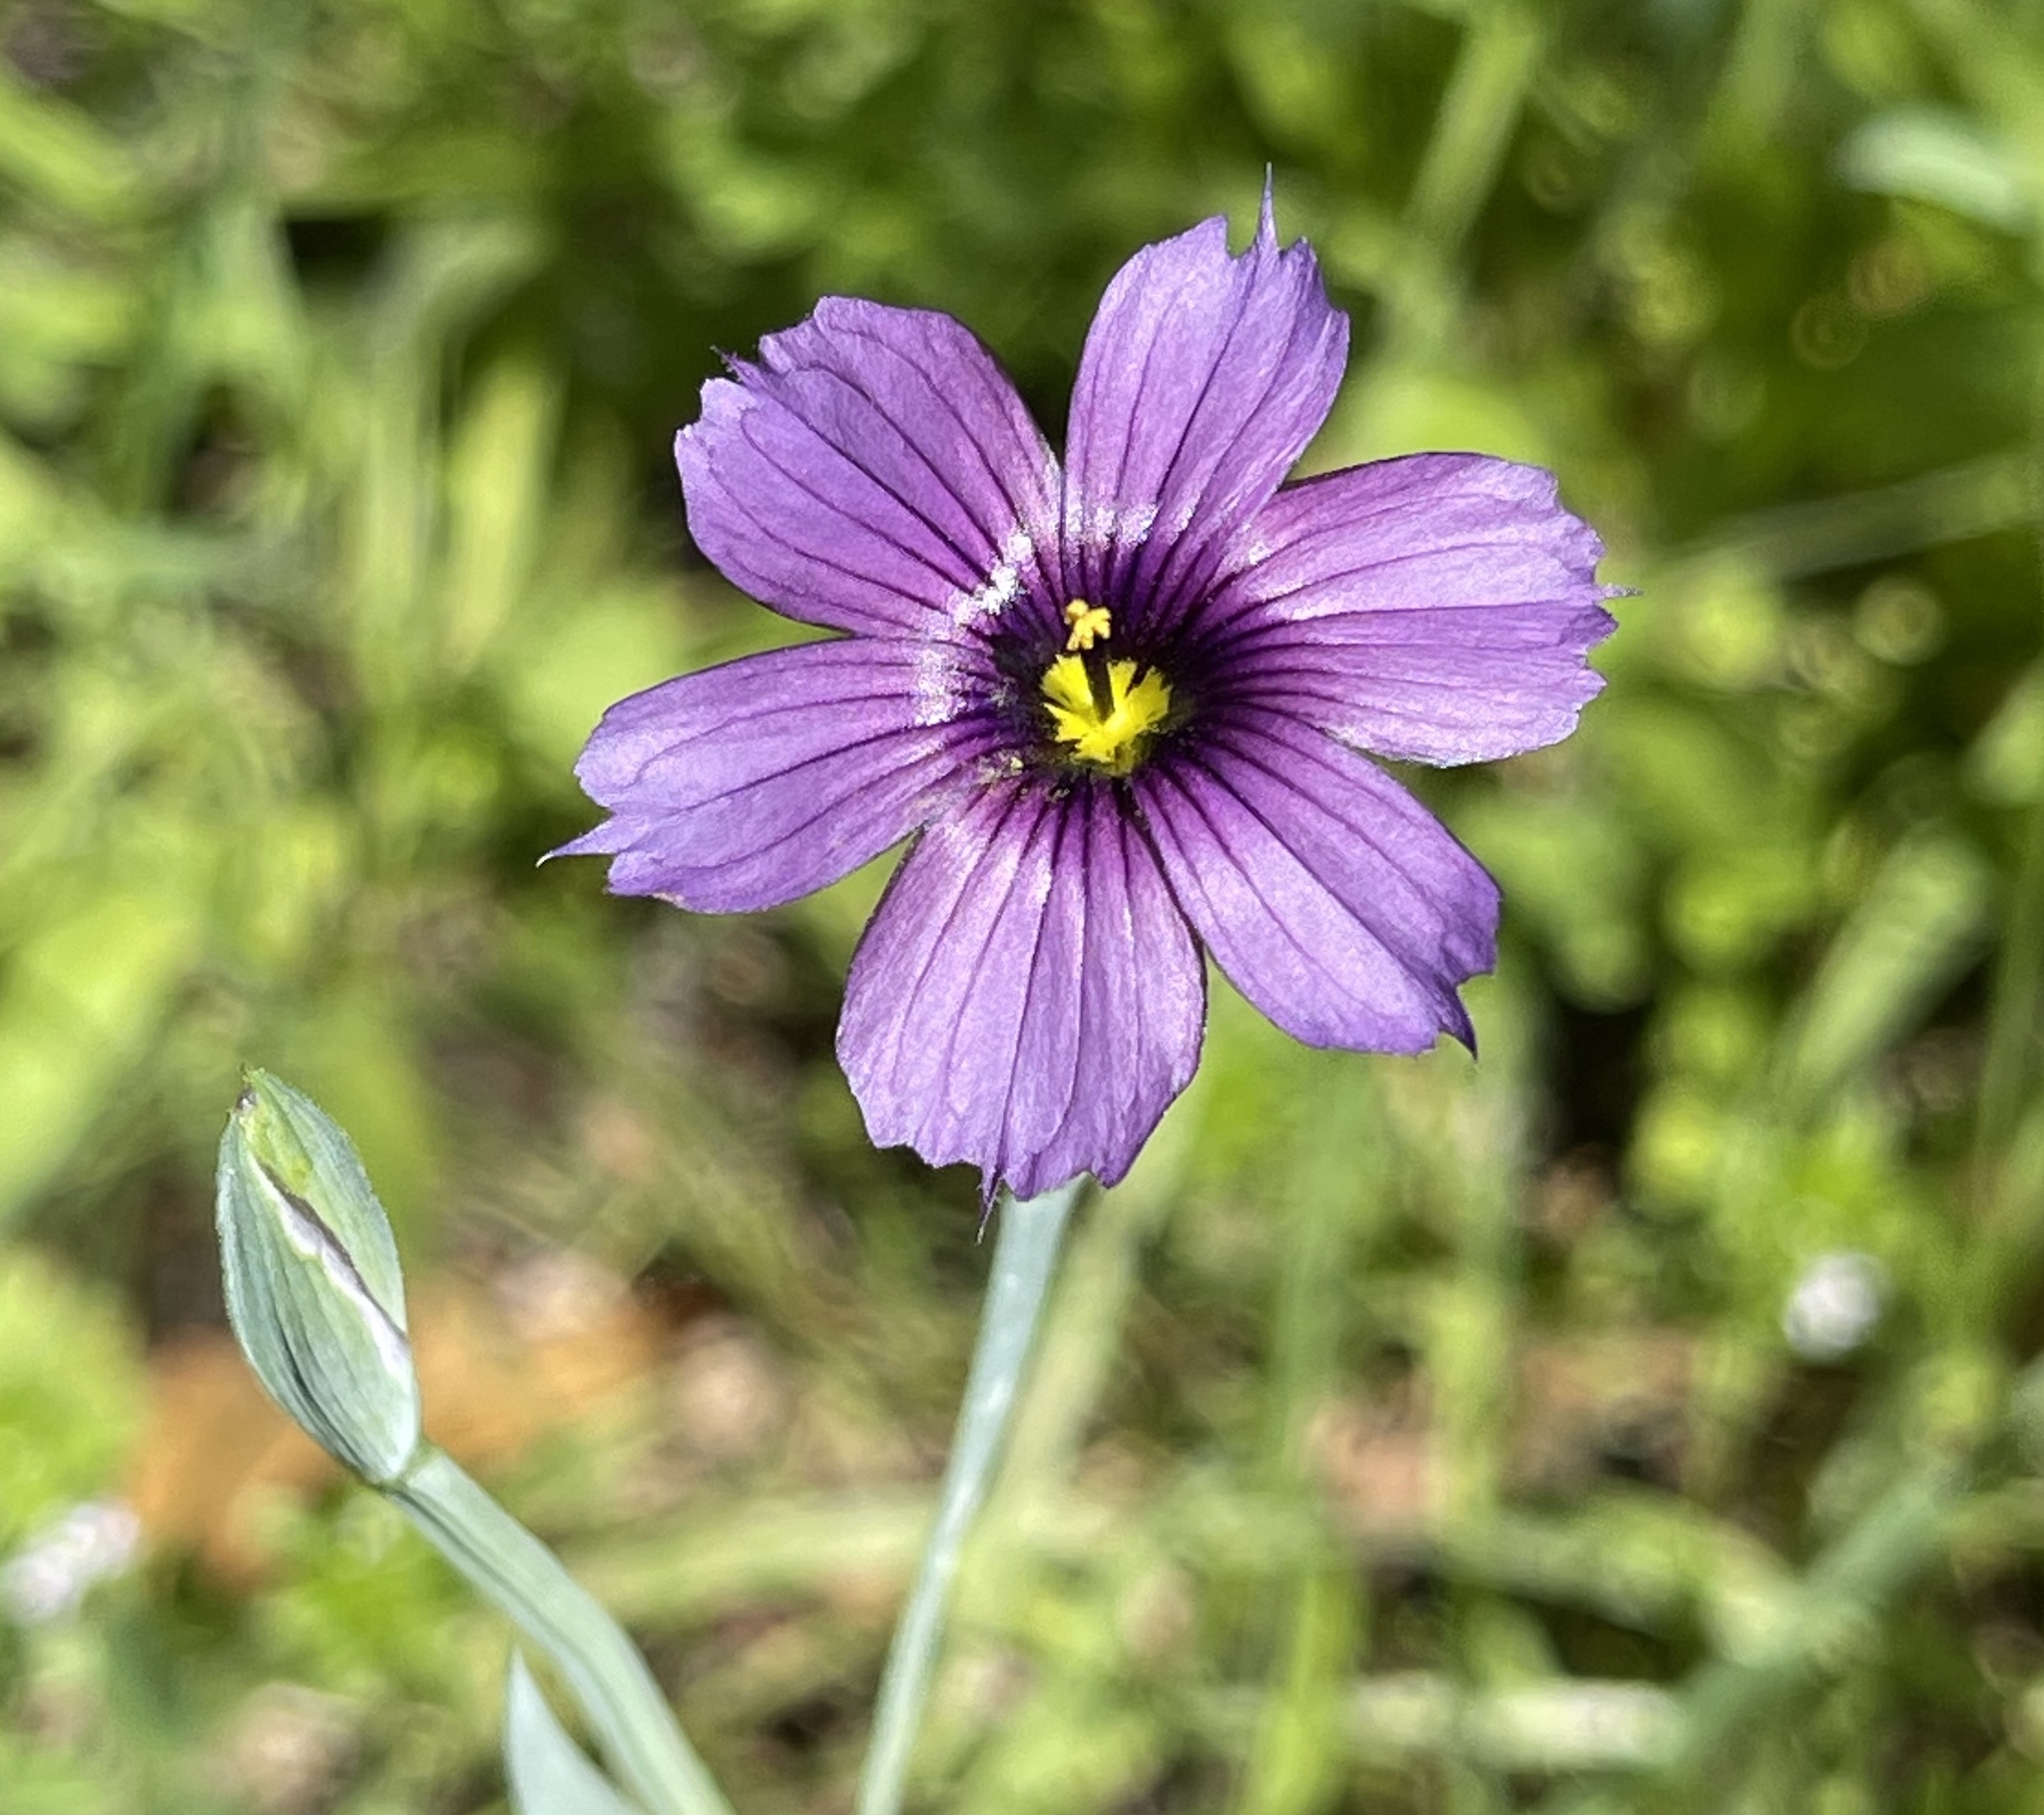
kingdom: Plantae
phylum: Tracheophyta
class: Liliopsida
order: Asparagales
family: Iridaceae
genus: Sisyrinchium
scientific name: Sisyrinchium bellum
